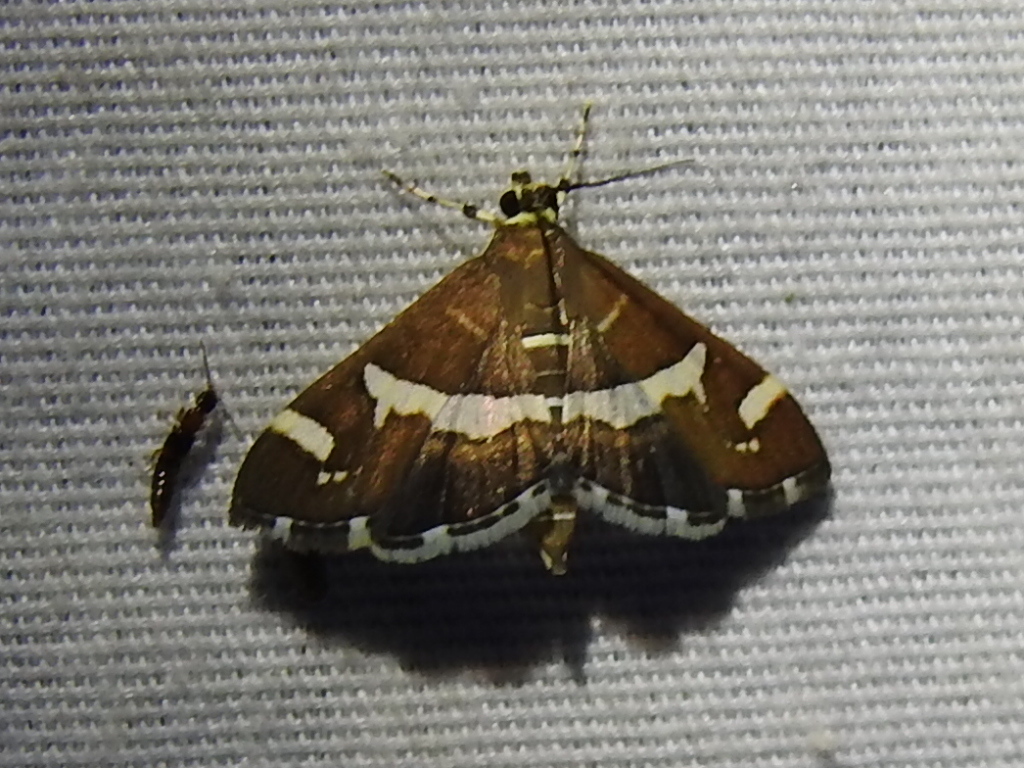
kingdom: Animalia
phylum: Arthropoda
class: Insecta
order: Lepidoptera
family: Crambidae
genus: Spoladea
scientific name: Spoladea recurvalis
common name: Beet webworm moth
